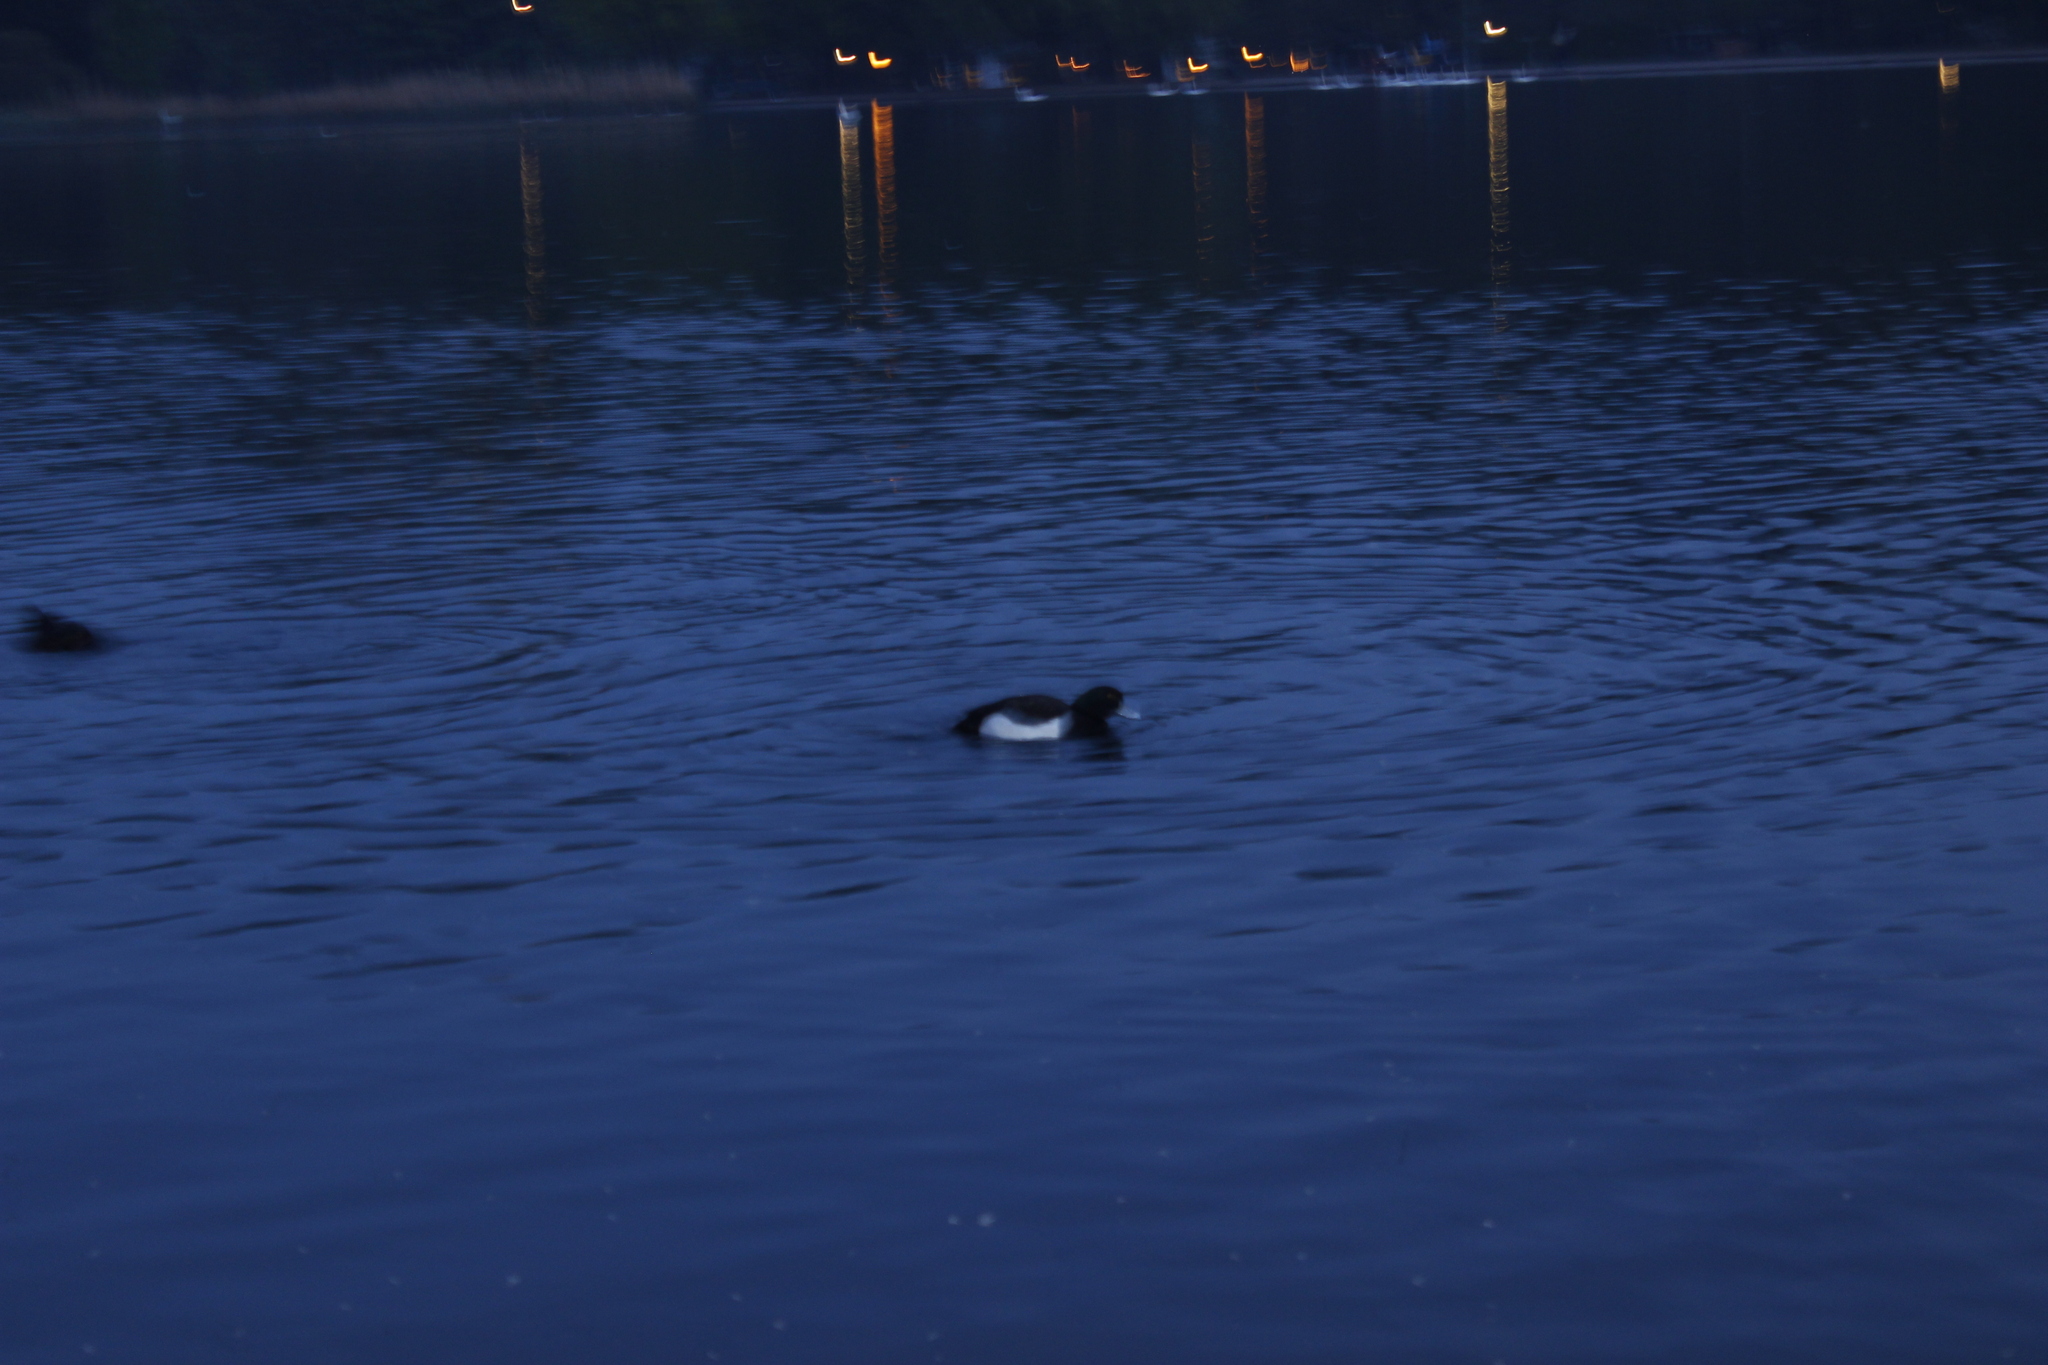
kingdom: Animalia
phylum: Chordata
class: Aves
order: Anseriformes
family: Anatidae
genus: Aythya
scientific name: Aythya fuligula
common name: Tufted duck
